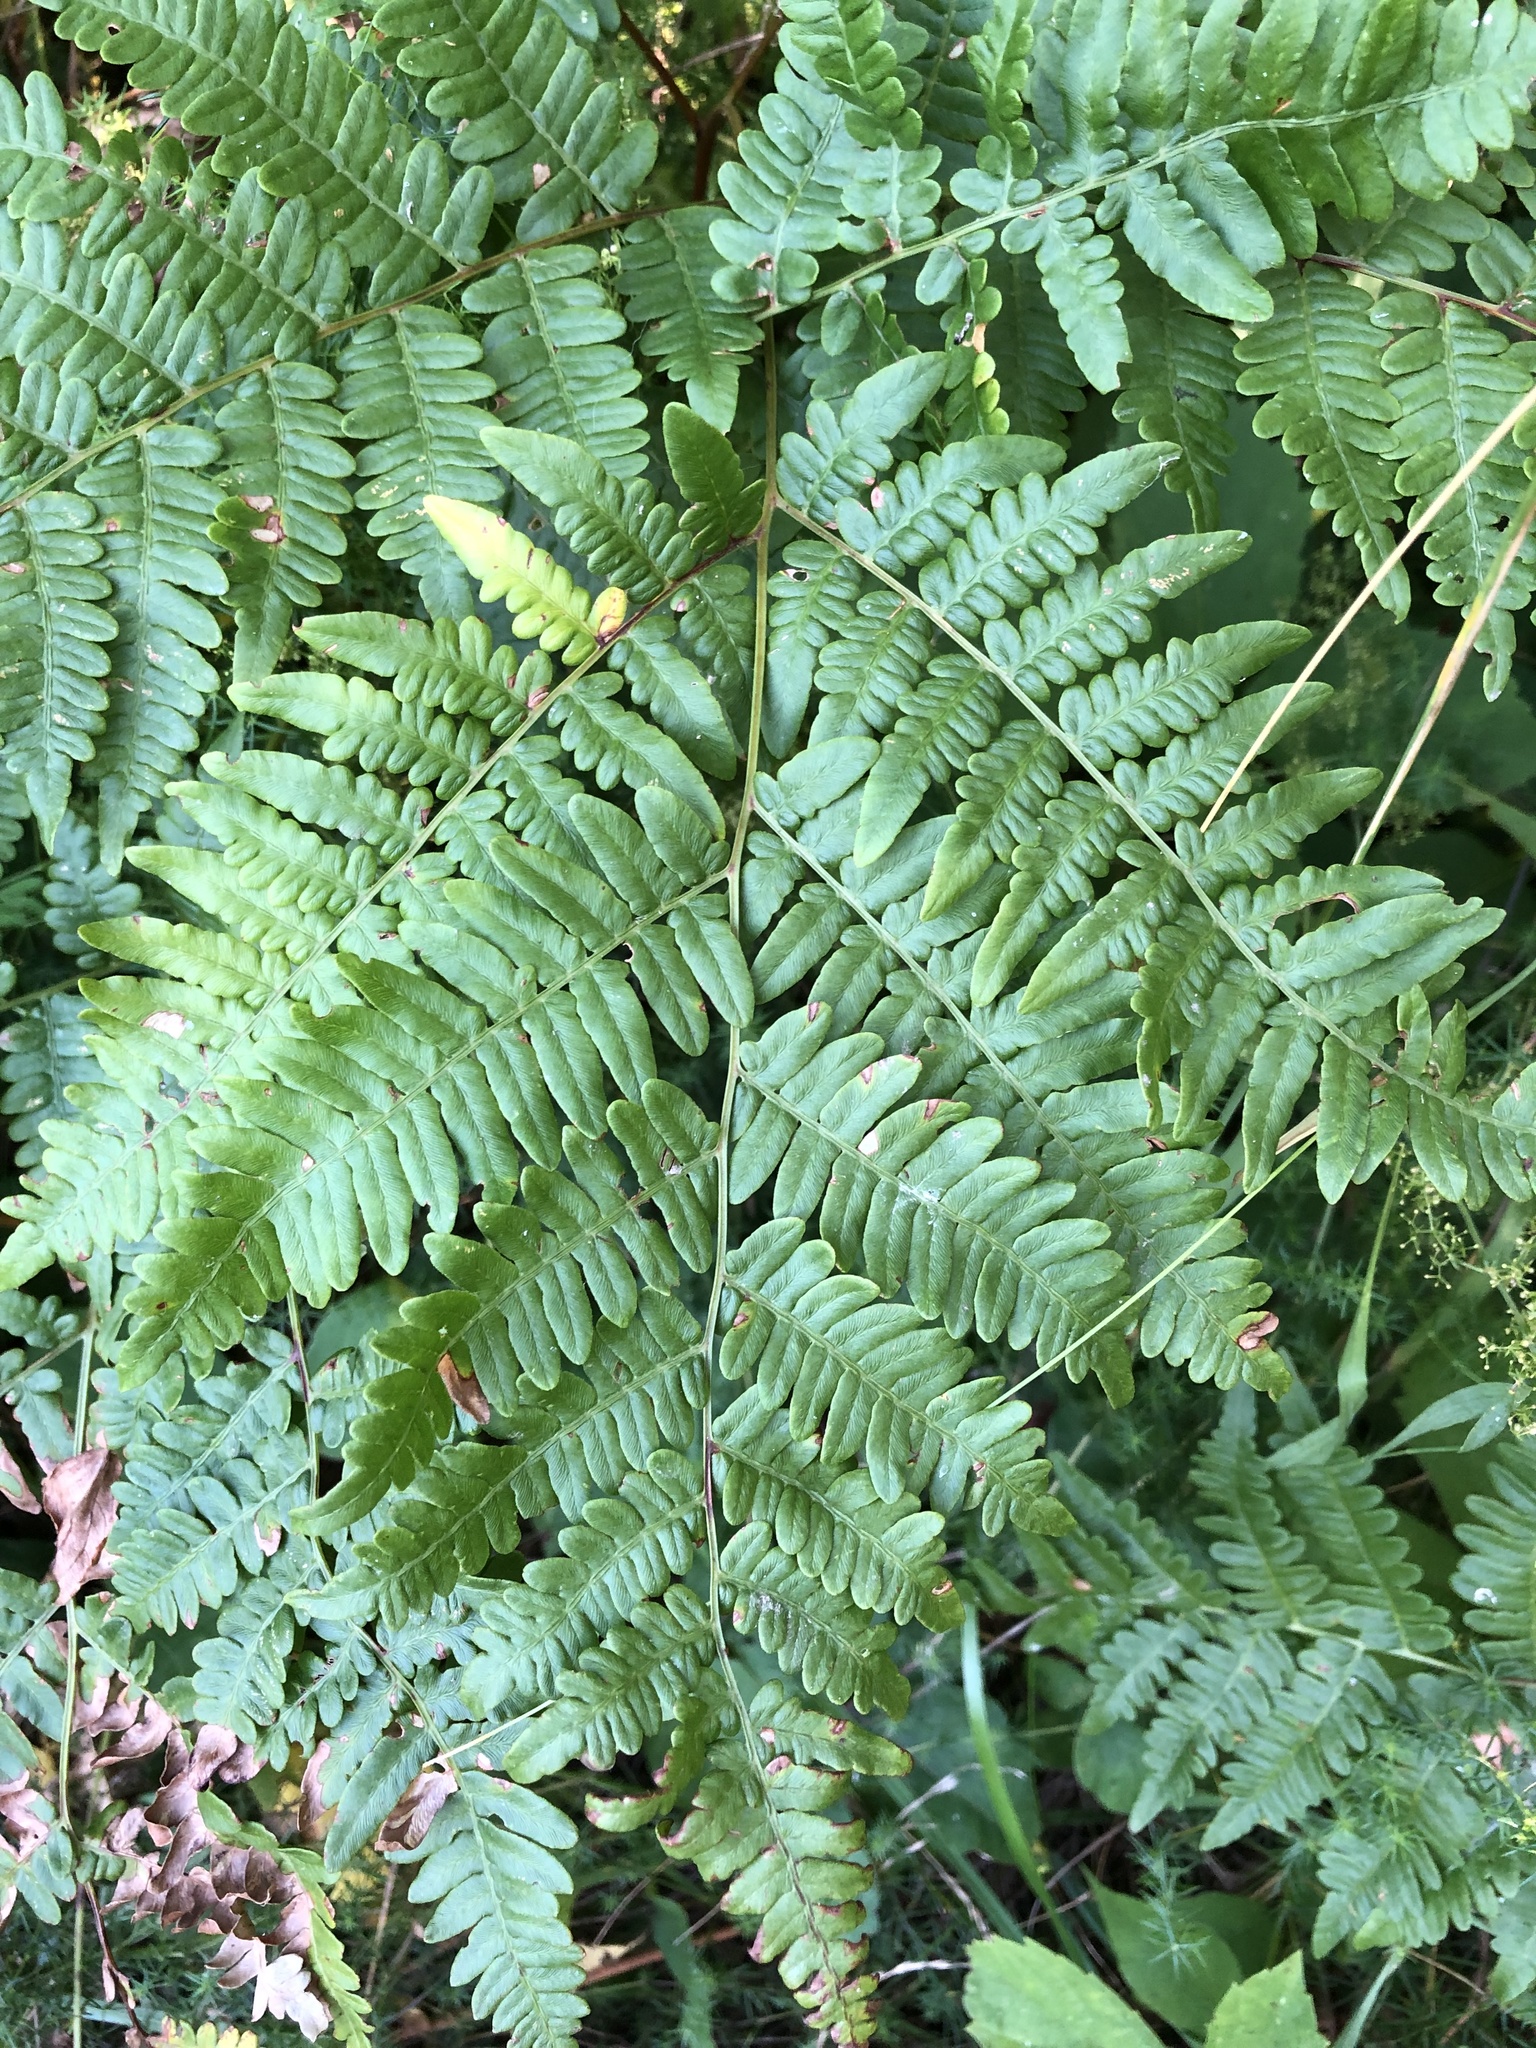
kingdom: Plantae
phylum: Tracheophyta
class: Polypodiopsida
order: Polypodiales
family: Dennstaedtiaceae
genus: Pteridium
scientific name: Pteridium aquilinum
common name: Bracken
